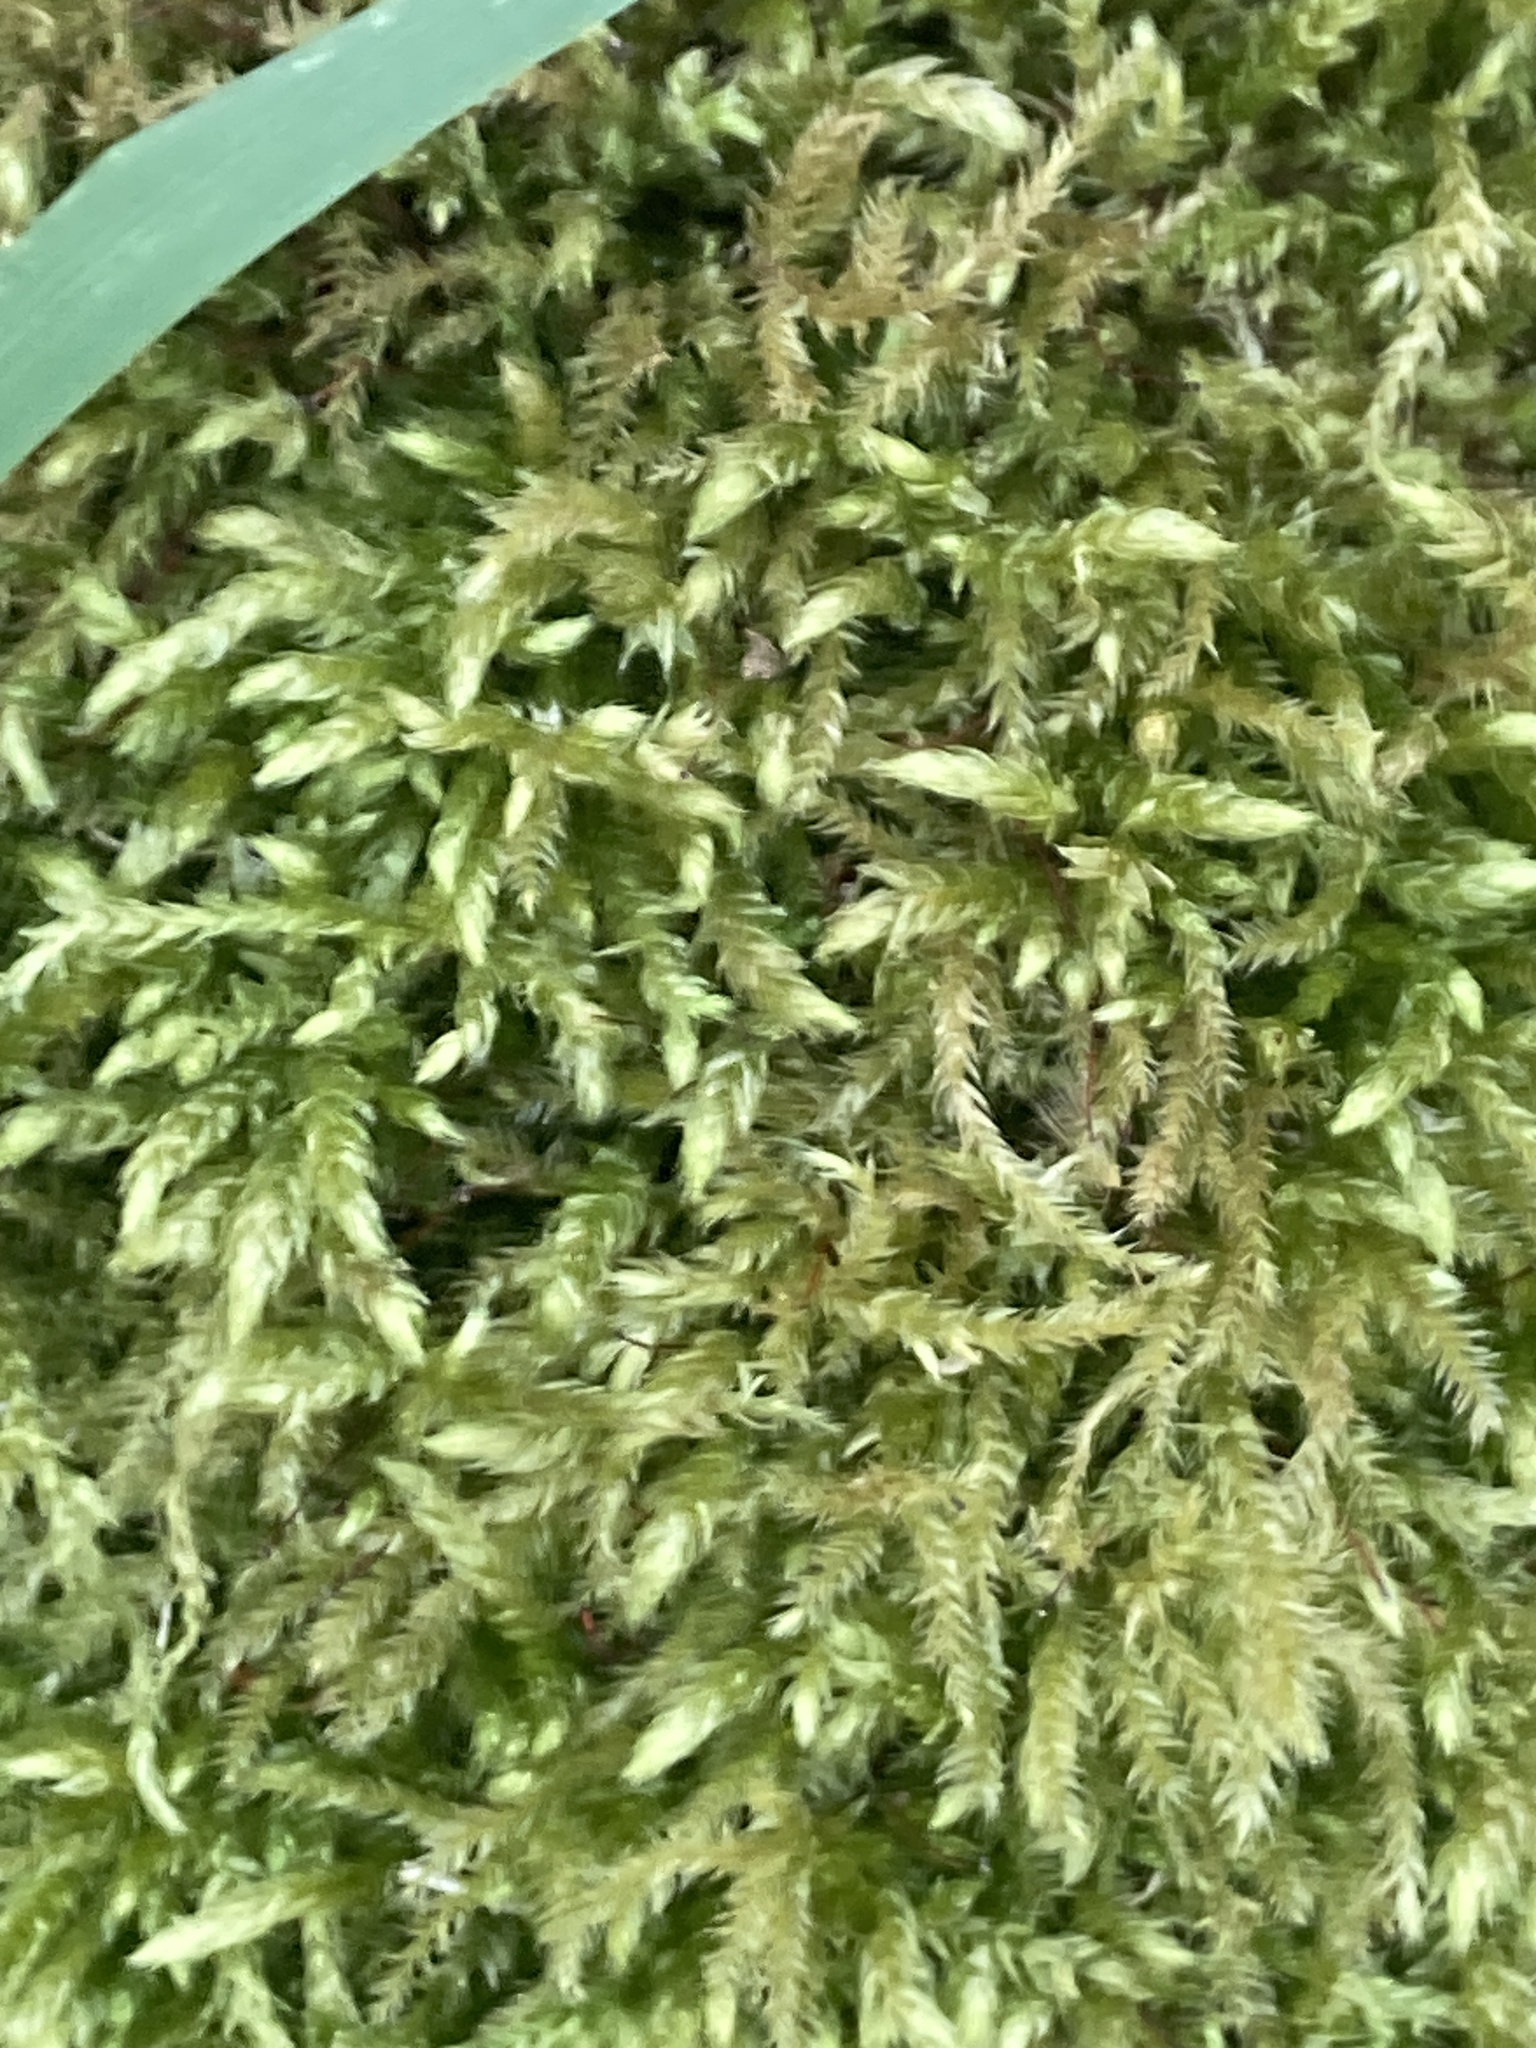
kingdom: Plantae
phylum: Bryophyta
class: Bryopsida
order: Hypnales
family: Brachytheciaceae
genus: Brachythecium
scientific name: Brachythecium rutabulum
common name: Rough-stalked feather-moss
